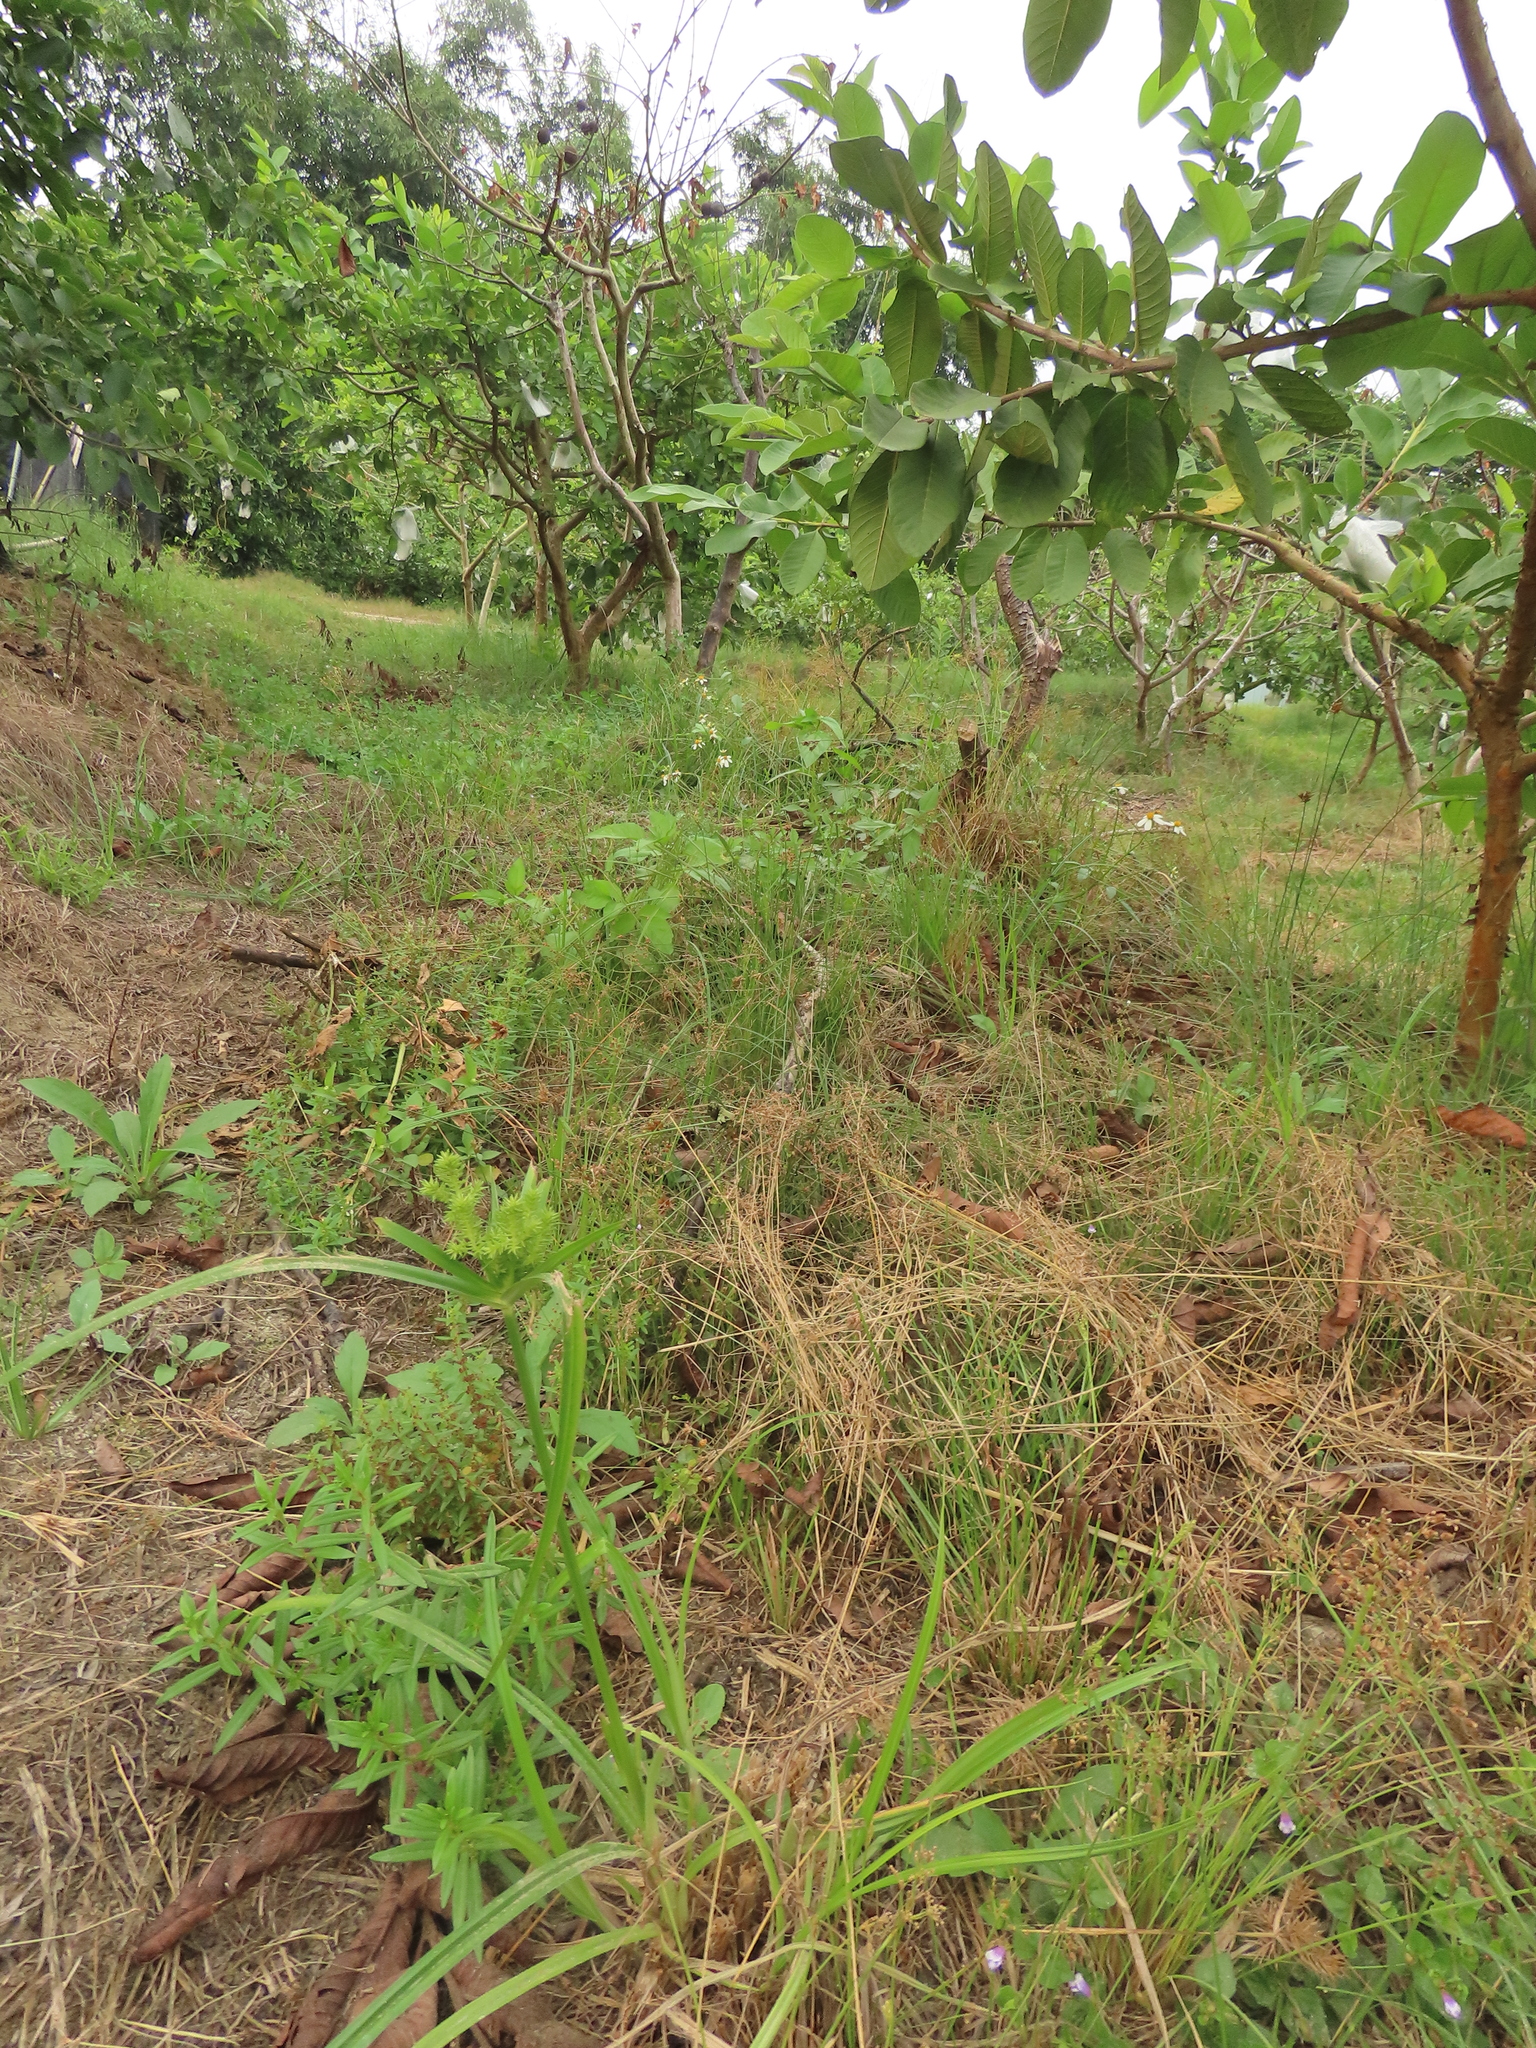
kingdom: Plantae
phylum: Tracheophyta
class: Liliopsida
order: Poales
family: Cyperaceae
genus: Cyperus
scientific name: Cyperus odoratus
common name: Fragrant flatsedge
